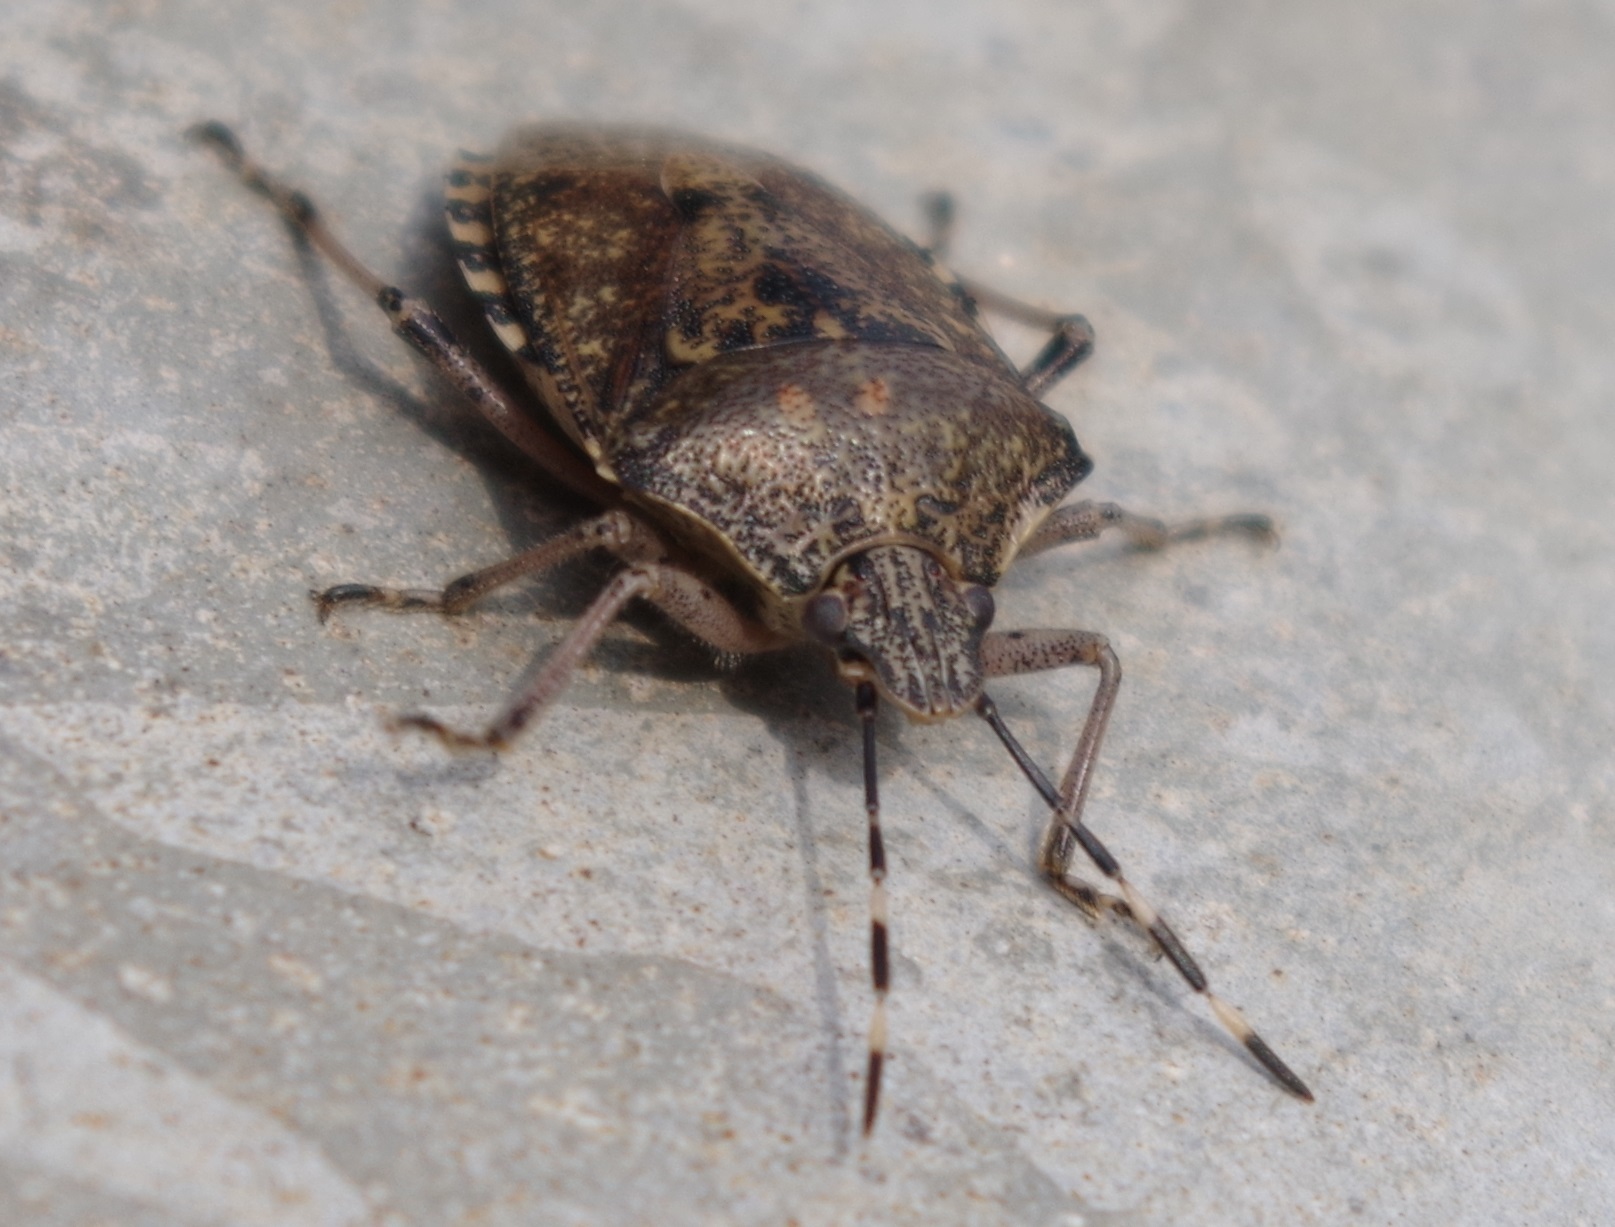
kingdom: Animalia
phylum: Arthropoda
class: Insecta
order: Hemiptera
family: Pentatomidae
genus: Rhaphigaster
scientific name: Rhaphigaster nebulosa
